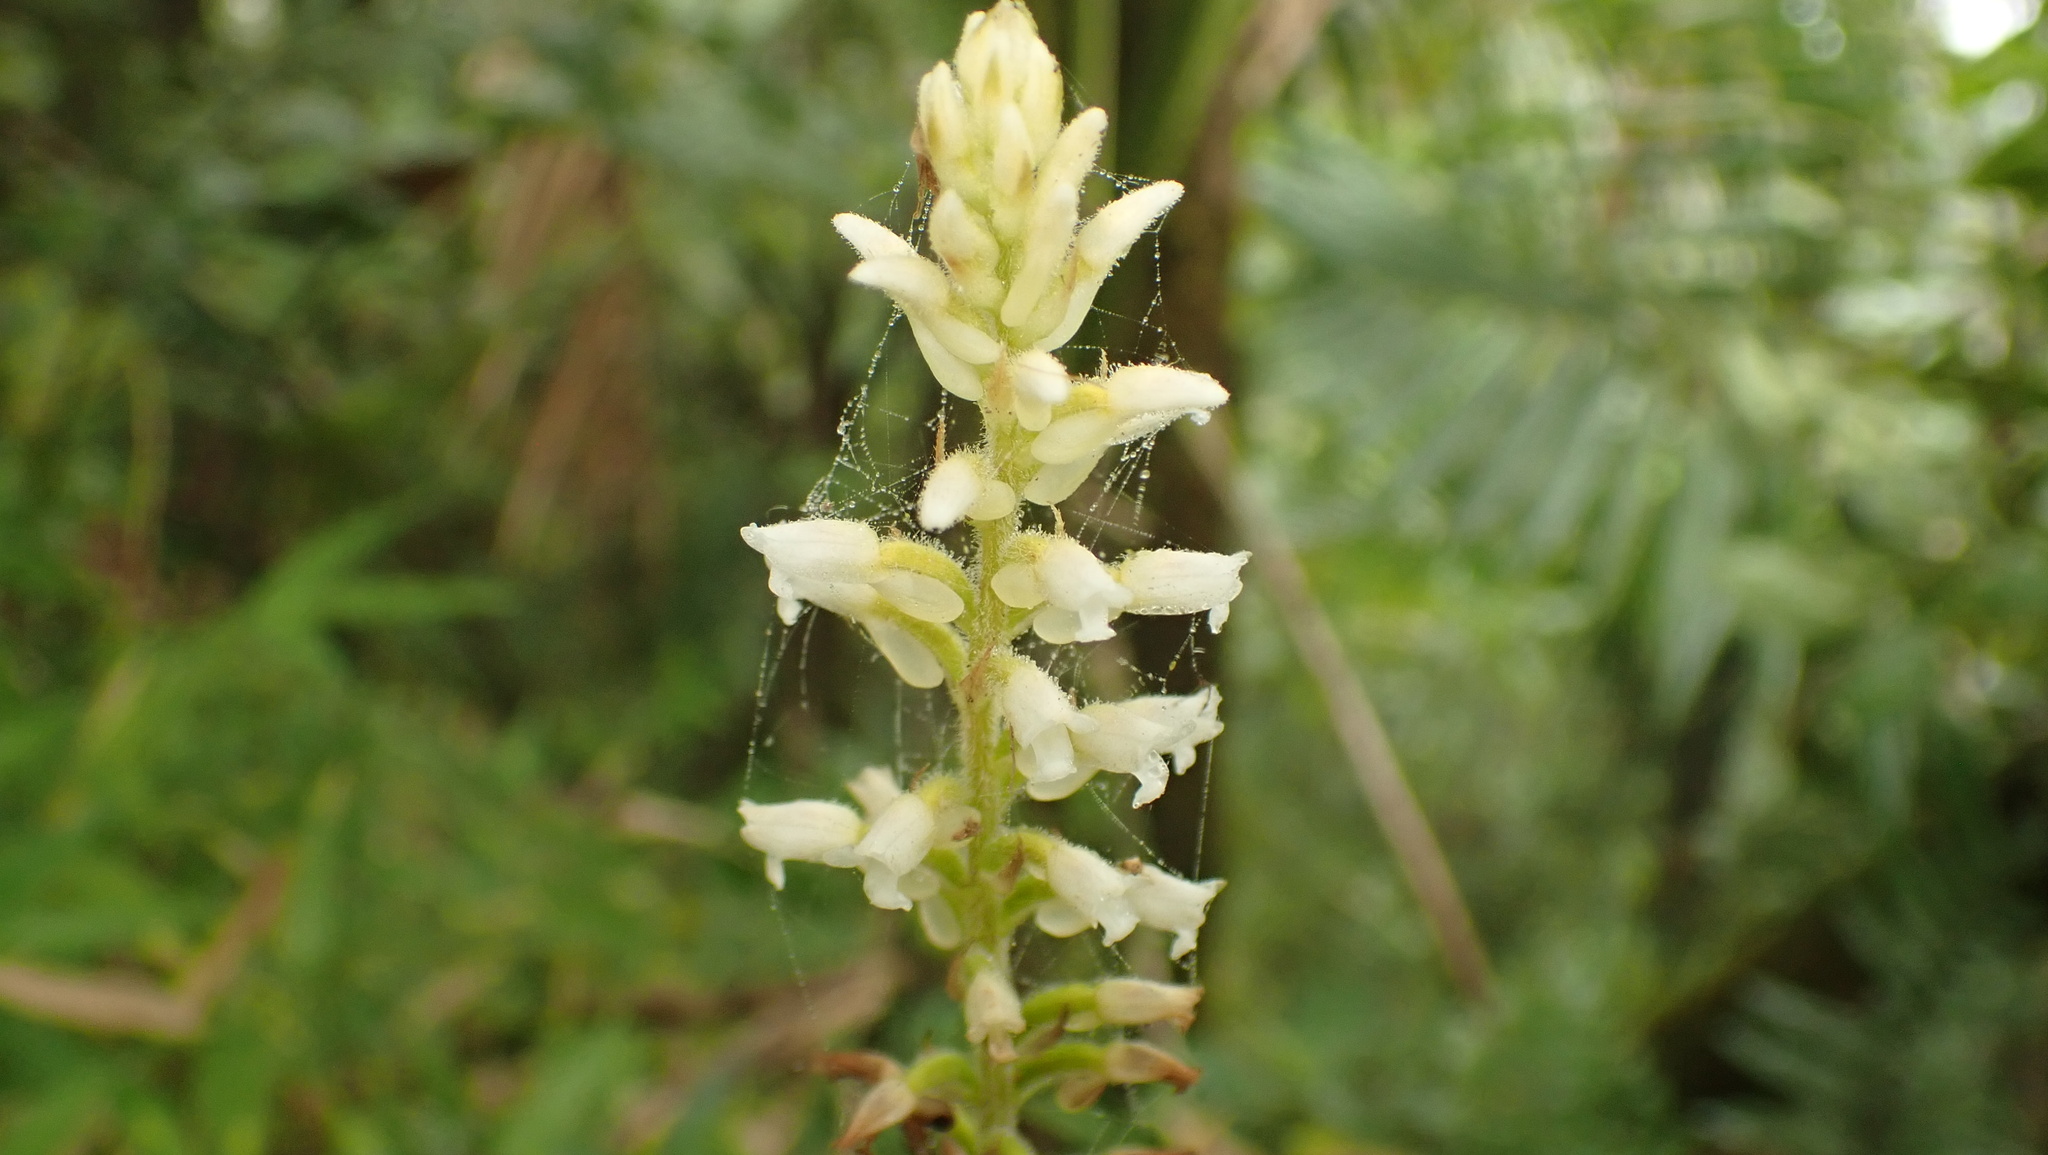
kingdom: Plantae
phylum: Tracheophyta
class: Liliopsida
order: Asparagales
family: Orchidaceae
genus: Microchilus
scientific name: Microchilus plantagineus
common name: Caribbean false helmetorchid
